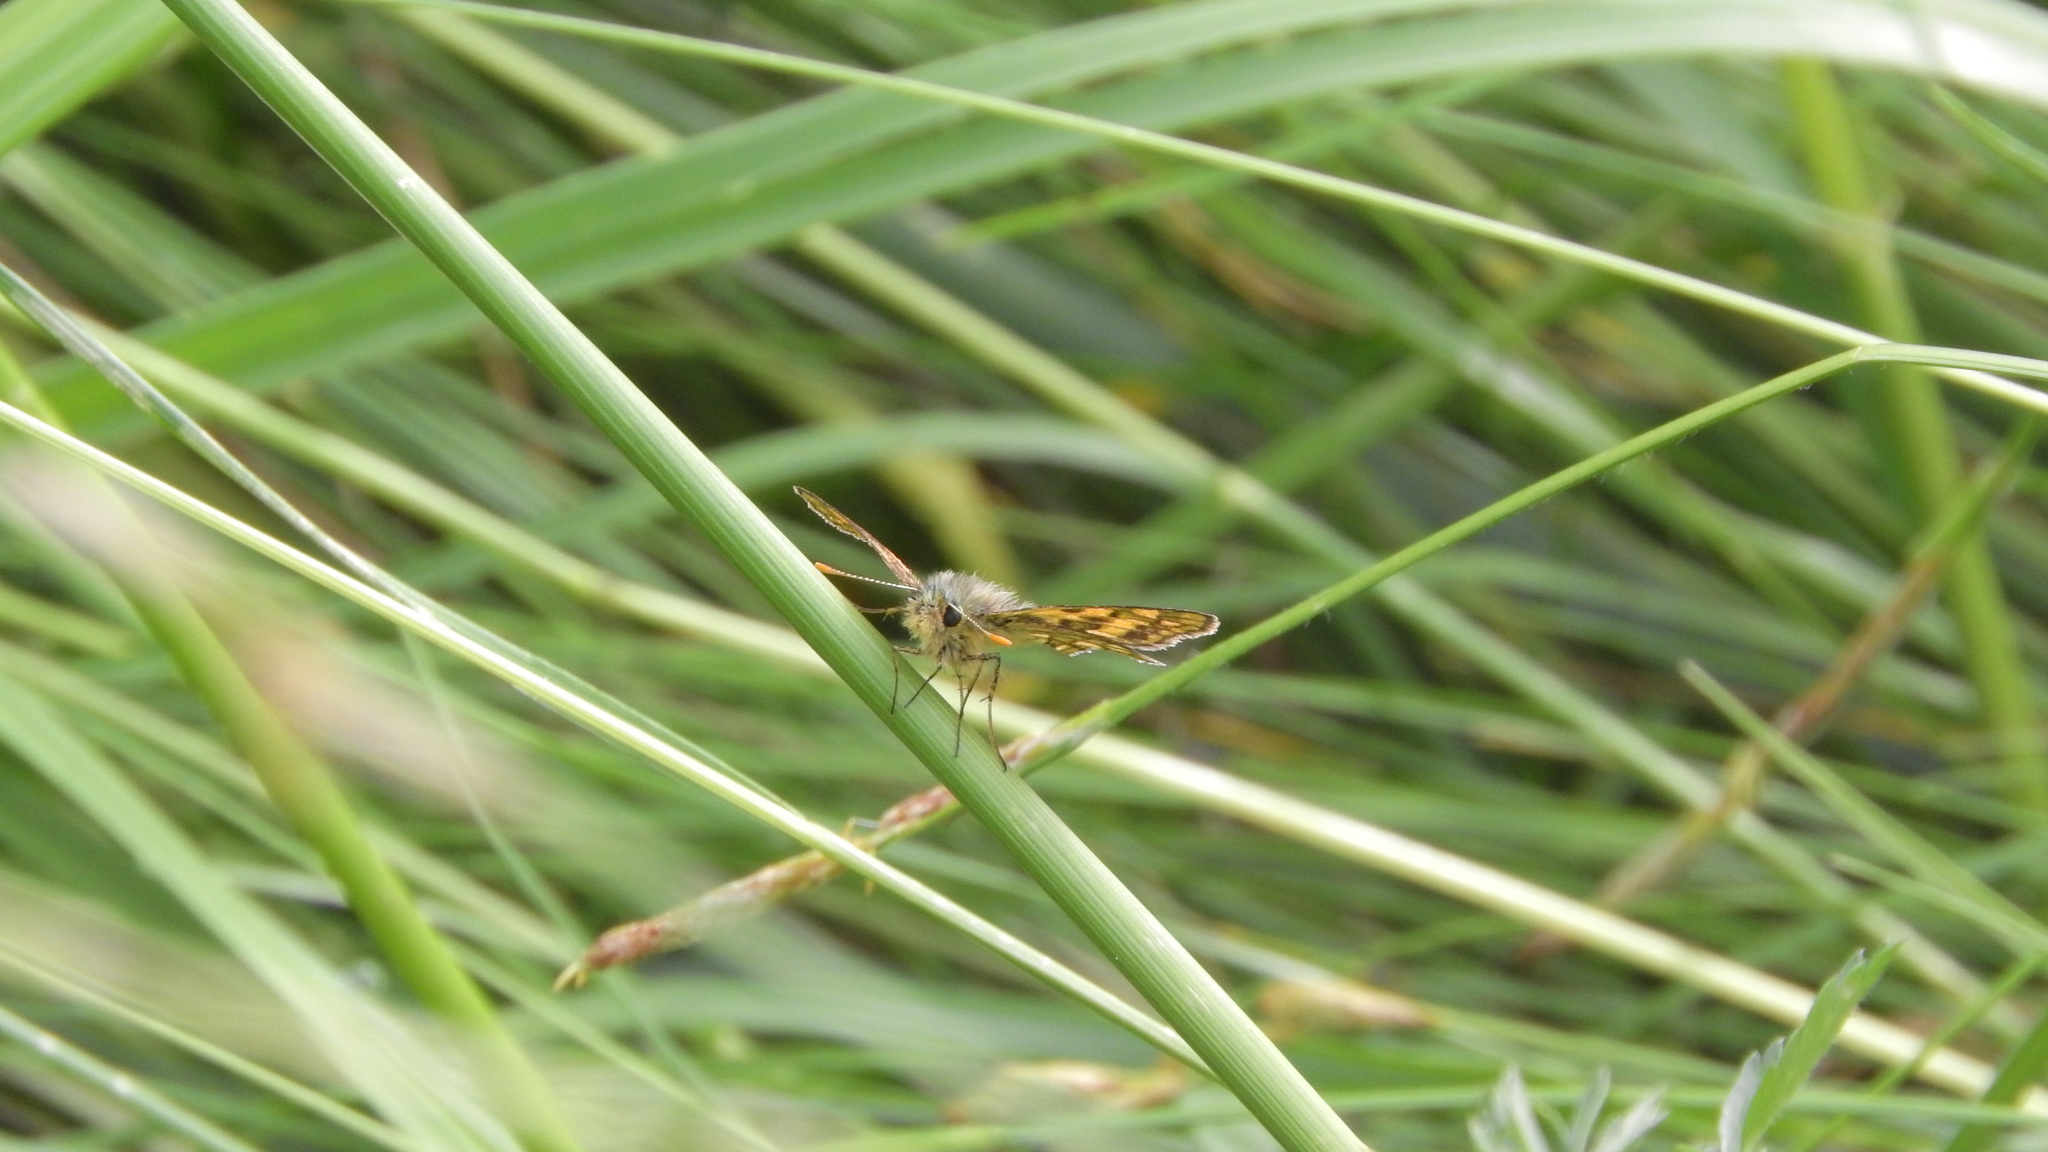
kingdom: Animalia
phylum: Arthropoda
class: Insecta
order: Lepidoptera
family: Hesperiidae
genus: Carterocephalus
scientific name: Carterocephalus palaemon
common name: Chequered skipper
